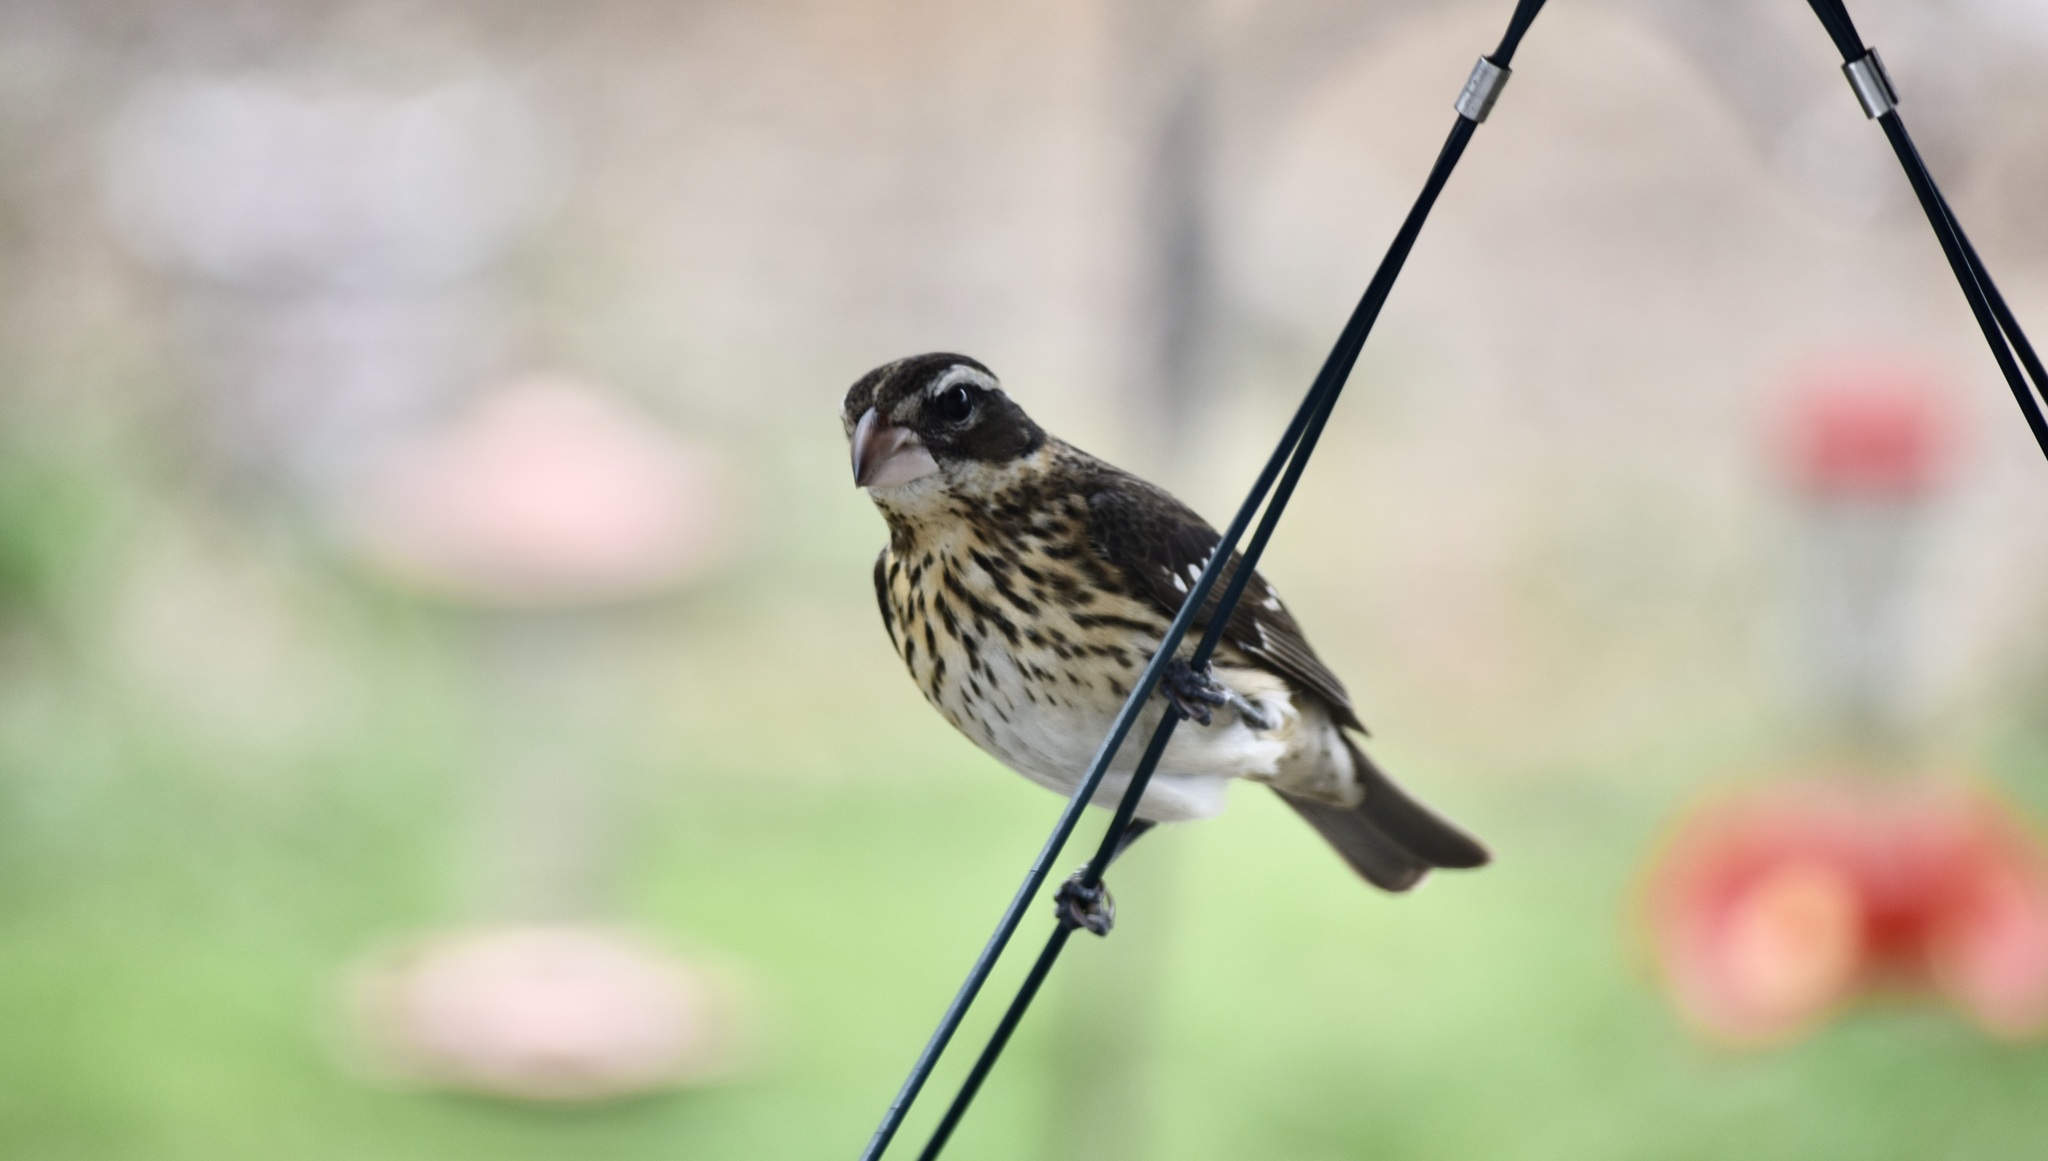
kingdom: Animalia
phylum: Chordata
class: Aves
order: Passeriformes
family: Cardinalidae
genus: Pheucticus
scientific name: Pheucticus ludovicianus
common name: Rose-breasted grosbeak
